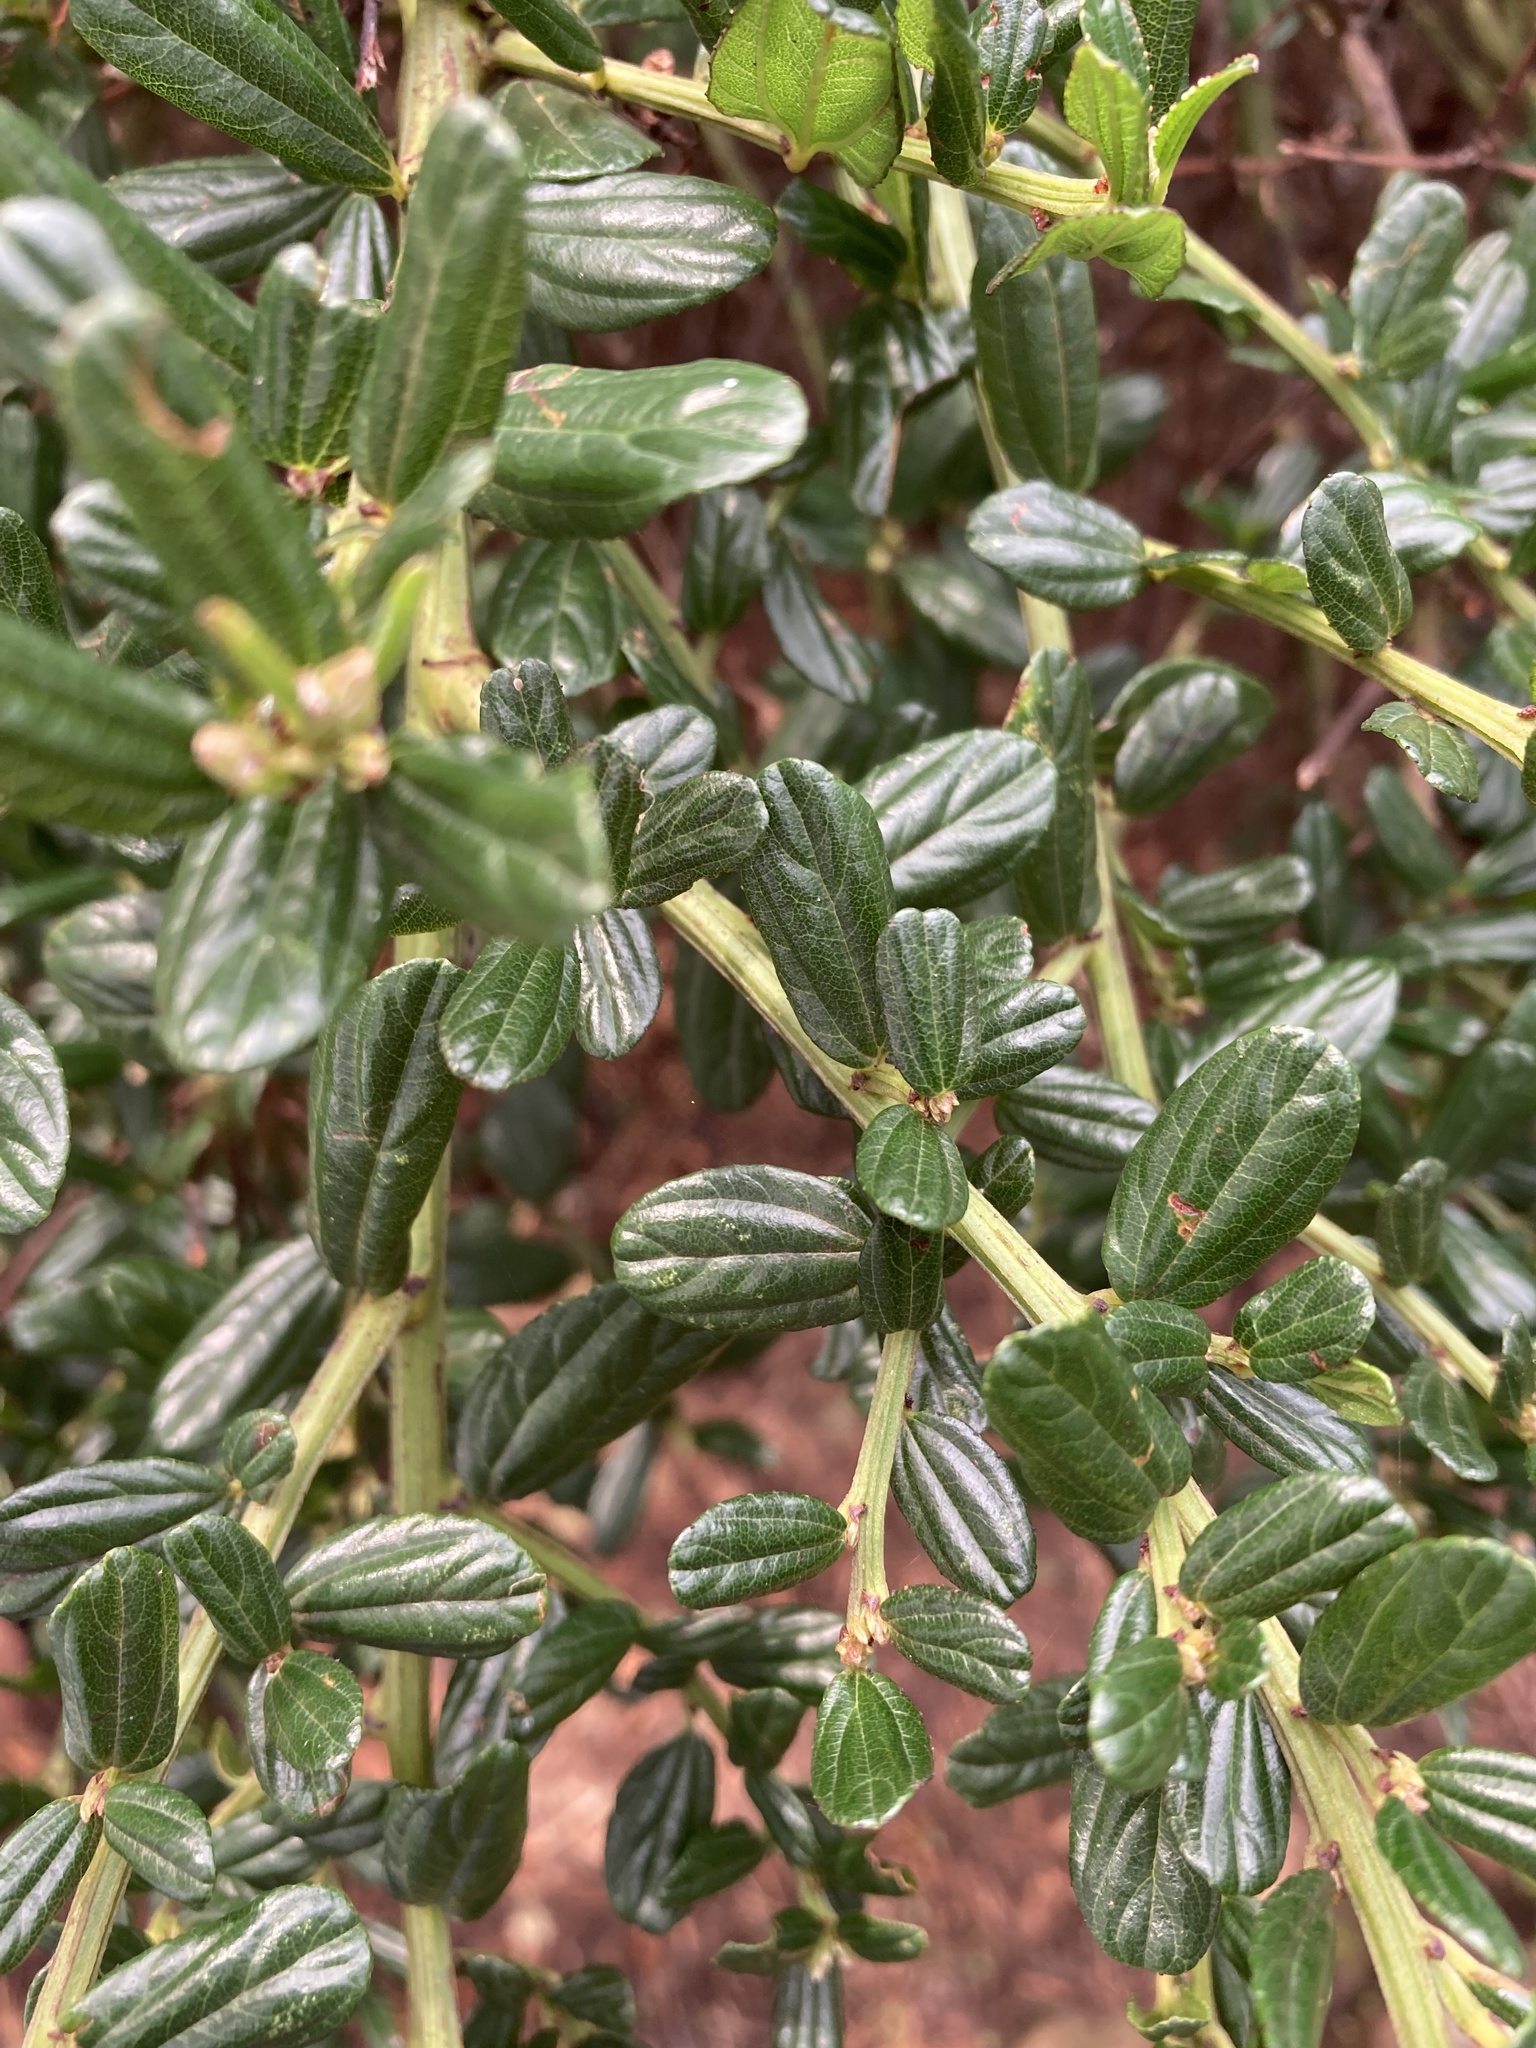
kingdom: Plantae
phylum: Tracheophyta
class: Magnoliopsida
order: Rosales
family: Rhamnaceae
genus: Ceanothus
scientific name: Ceanothus thyrsiflorus
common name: California-lilac
